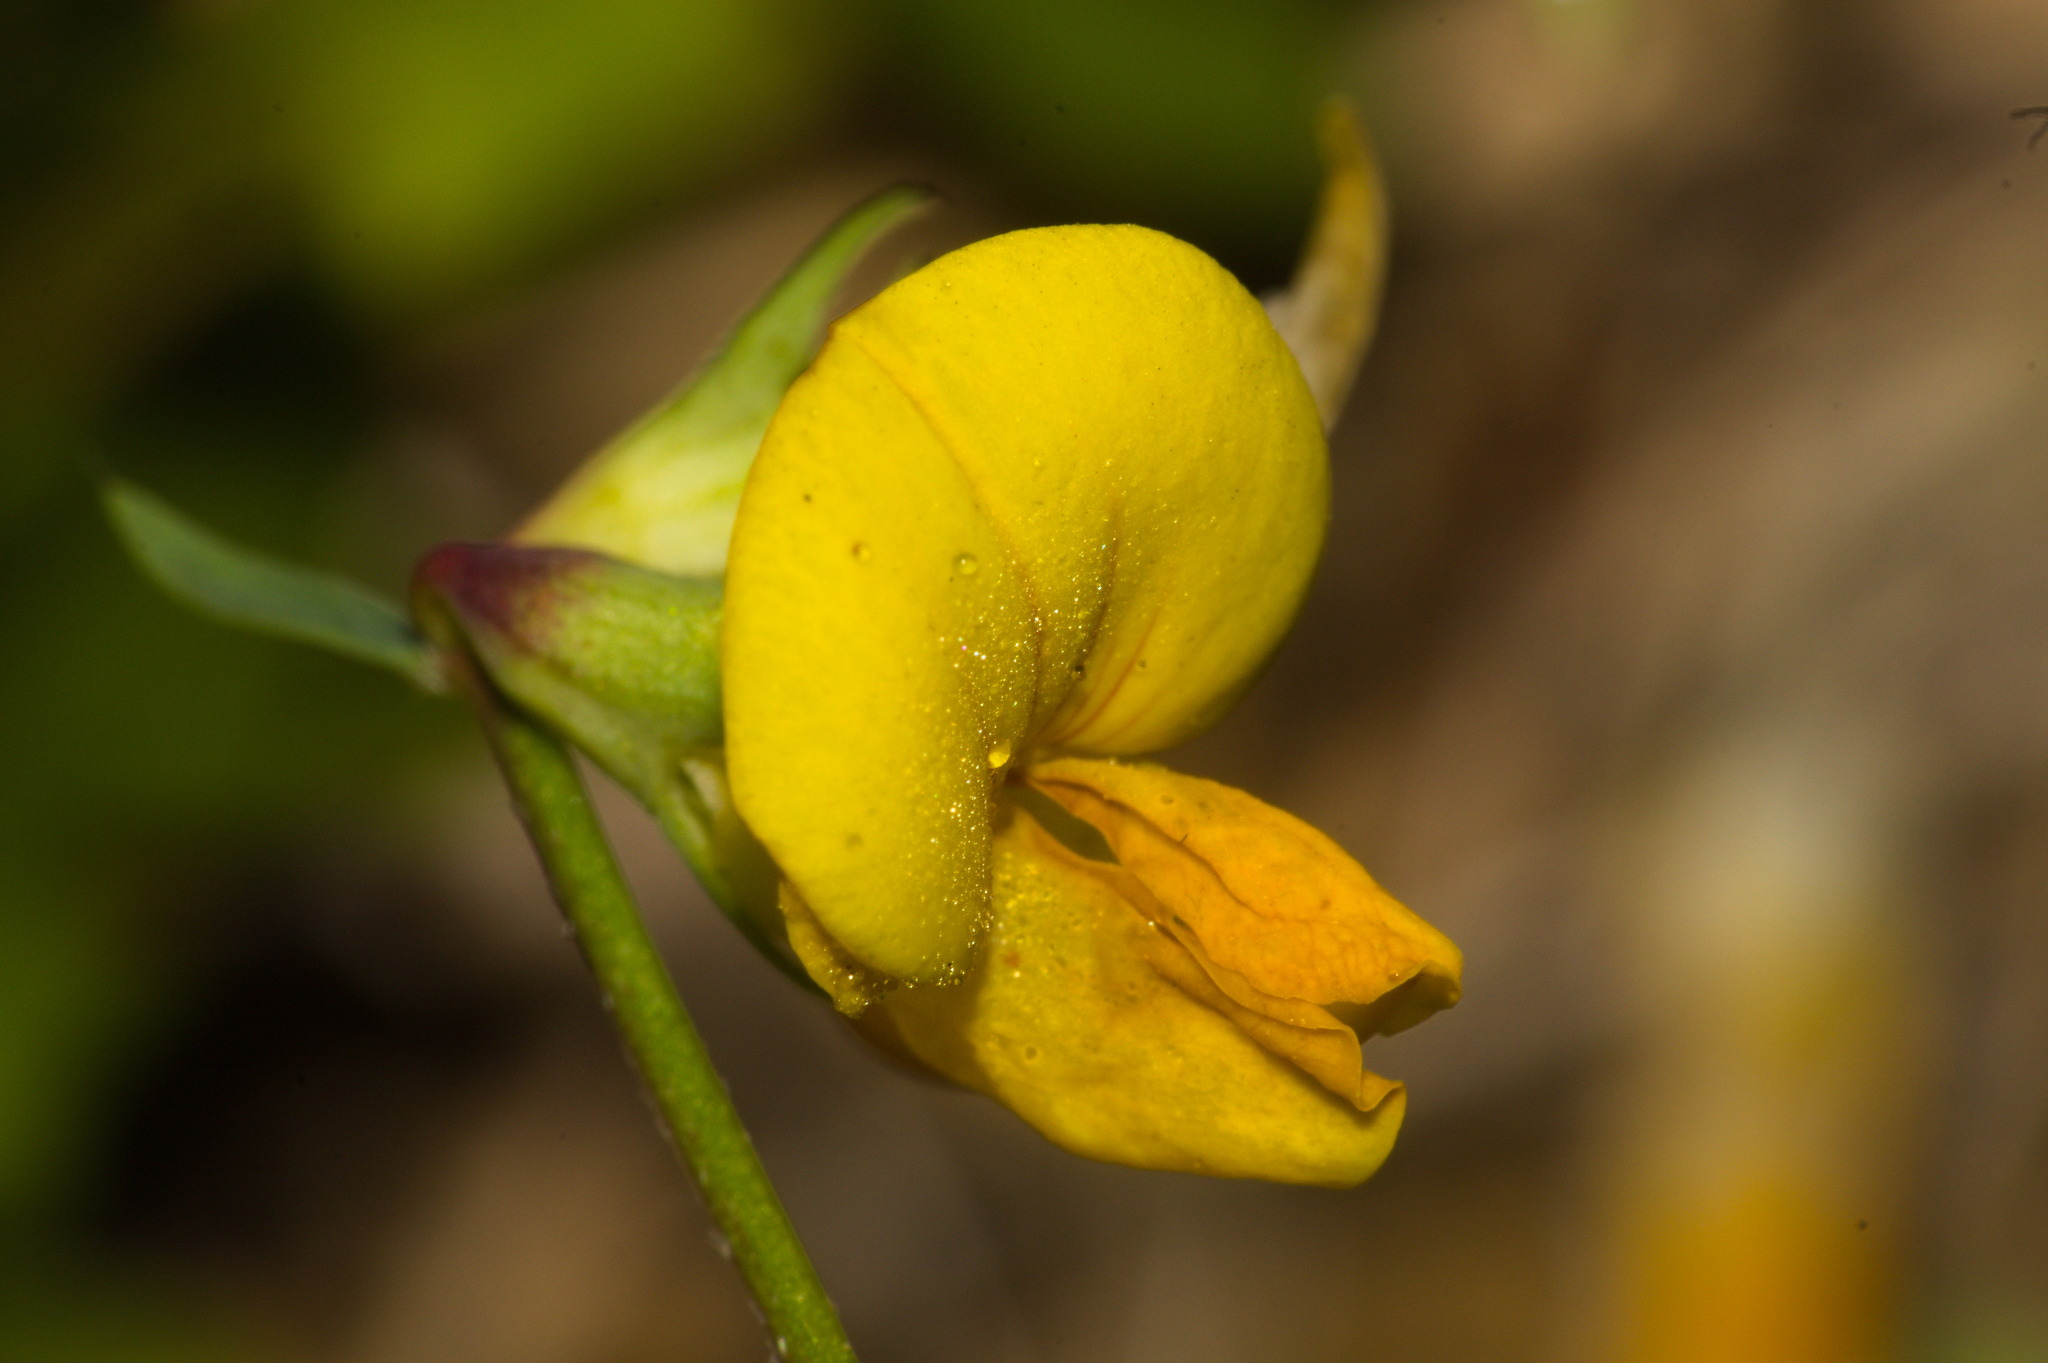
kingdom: Plantae
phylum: Tracheophyta
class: Magnoliopsida
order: Fabales
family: Fabaceae
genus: Lotus
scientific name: Lotus corniculatus
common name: Common bird's-foot-trefoil
